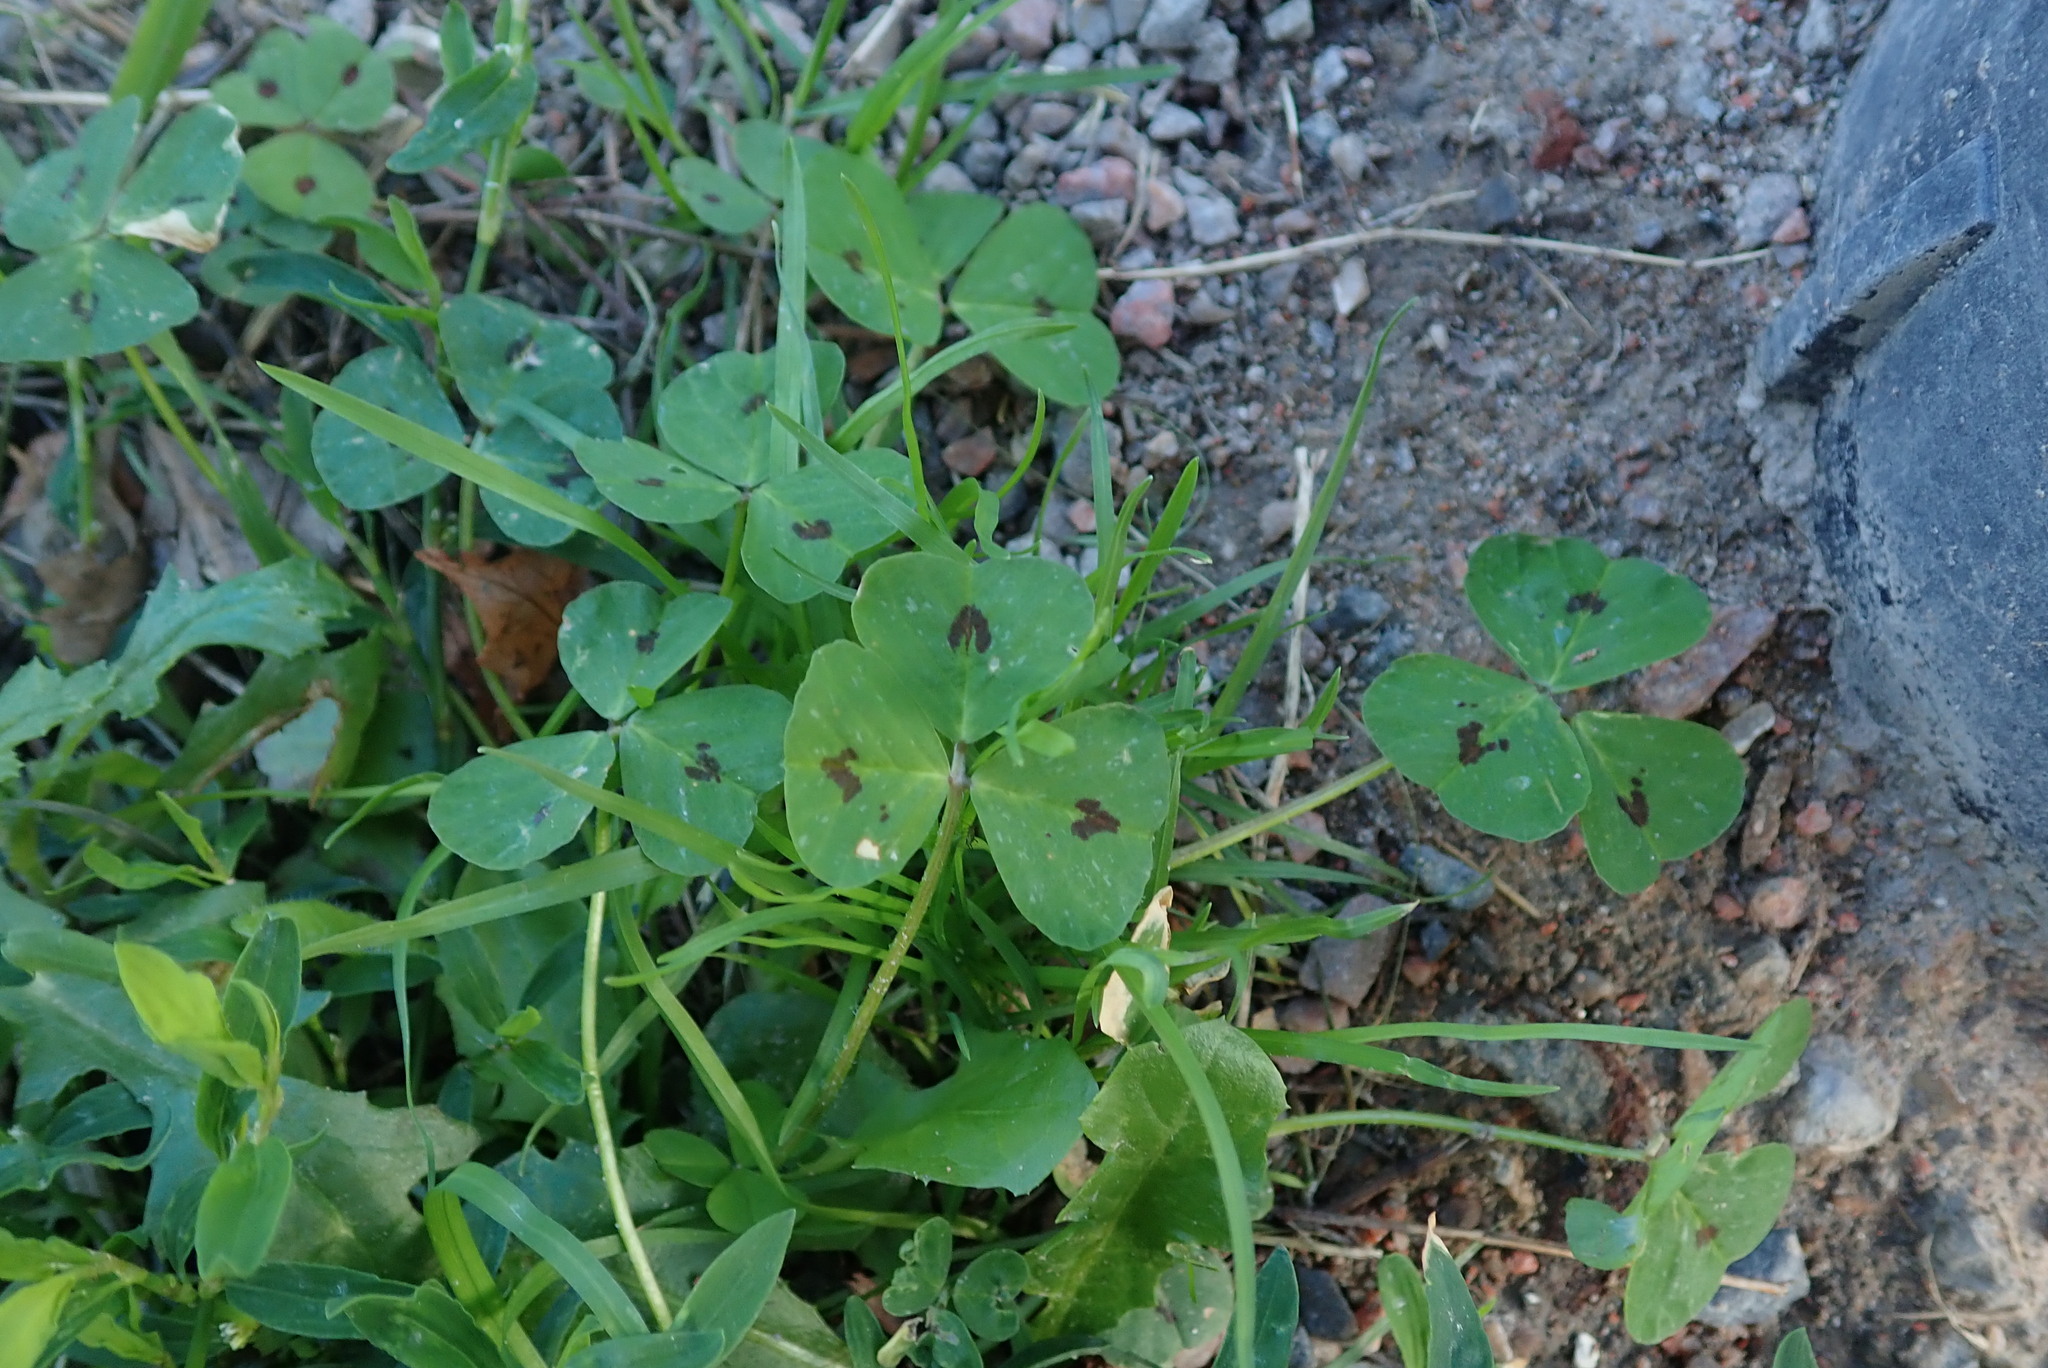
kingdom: Plantae
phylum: Tracheophyta
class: Magnoliopsida
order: Fabales
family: Fabaceae
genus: Medicago
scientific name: Medicago arabica
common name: Spotted medick
